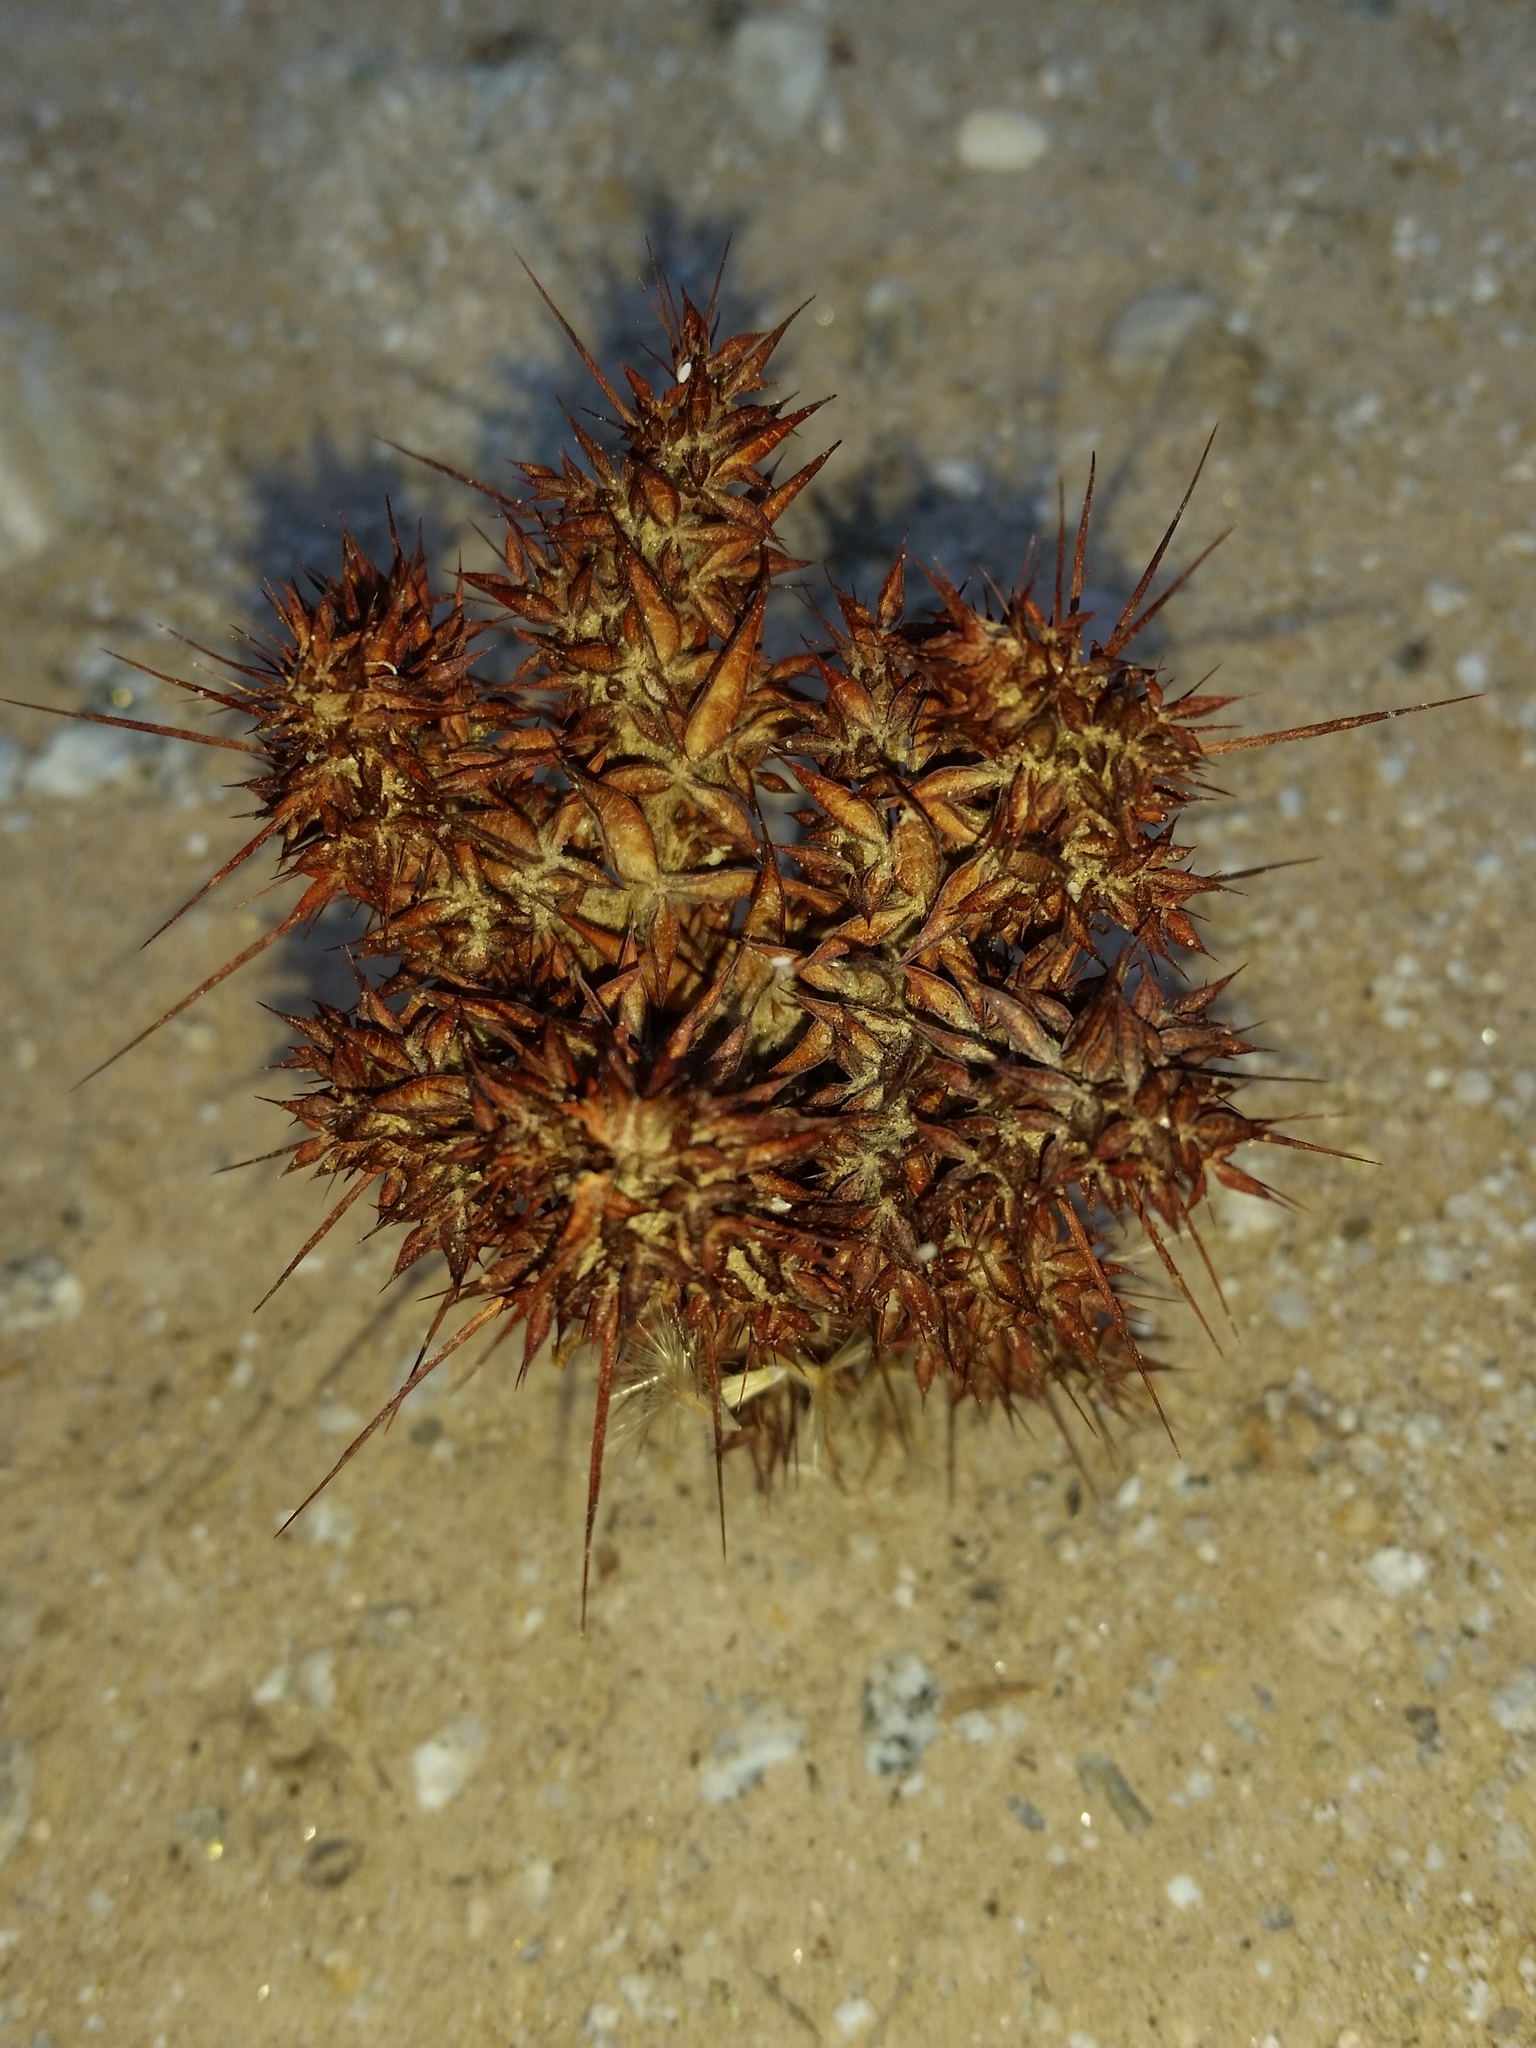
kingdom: Plantae
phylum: Tracheophyta
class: Magnoliopsida
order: Caryophyllales
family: Polygonaceae
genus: Chorizanthe
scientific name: Chorizanthe rigida
